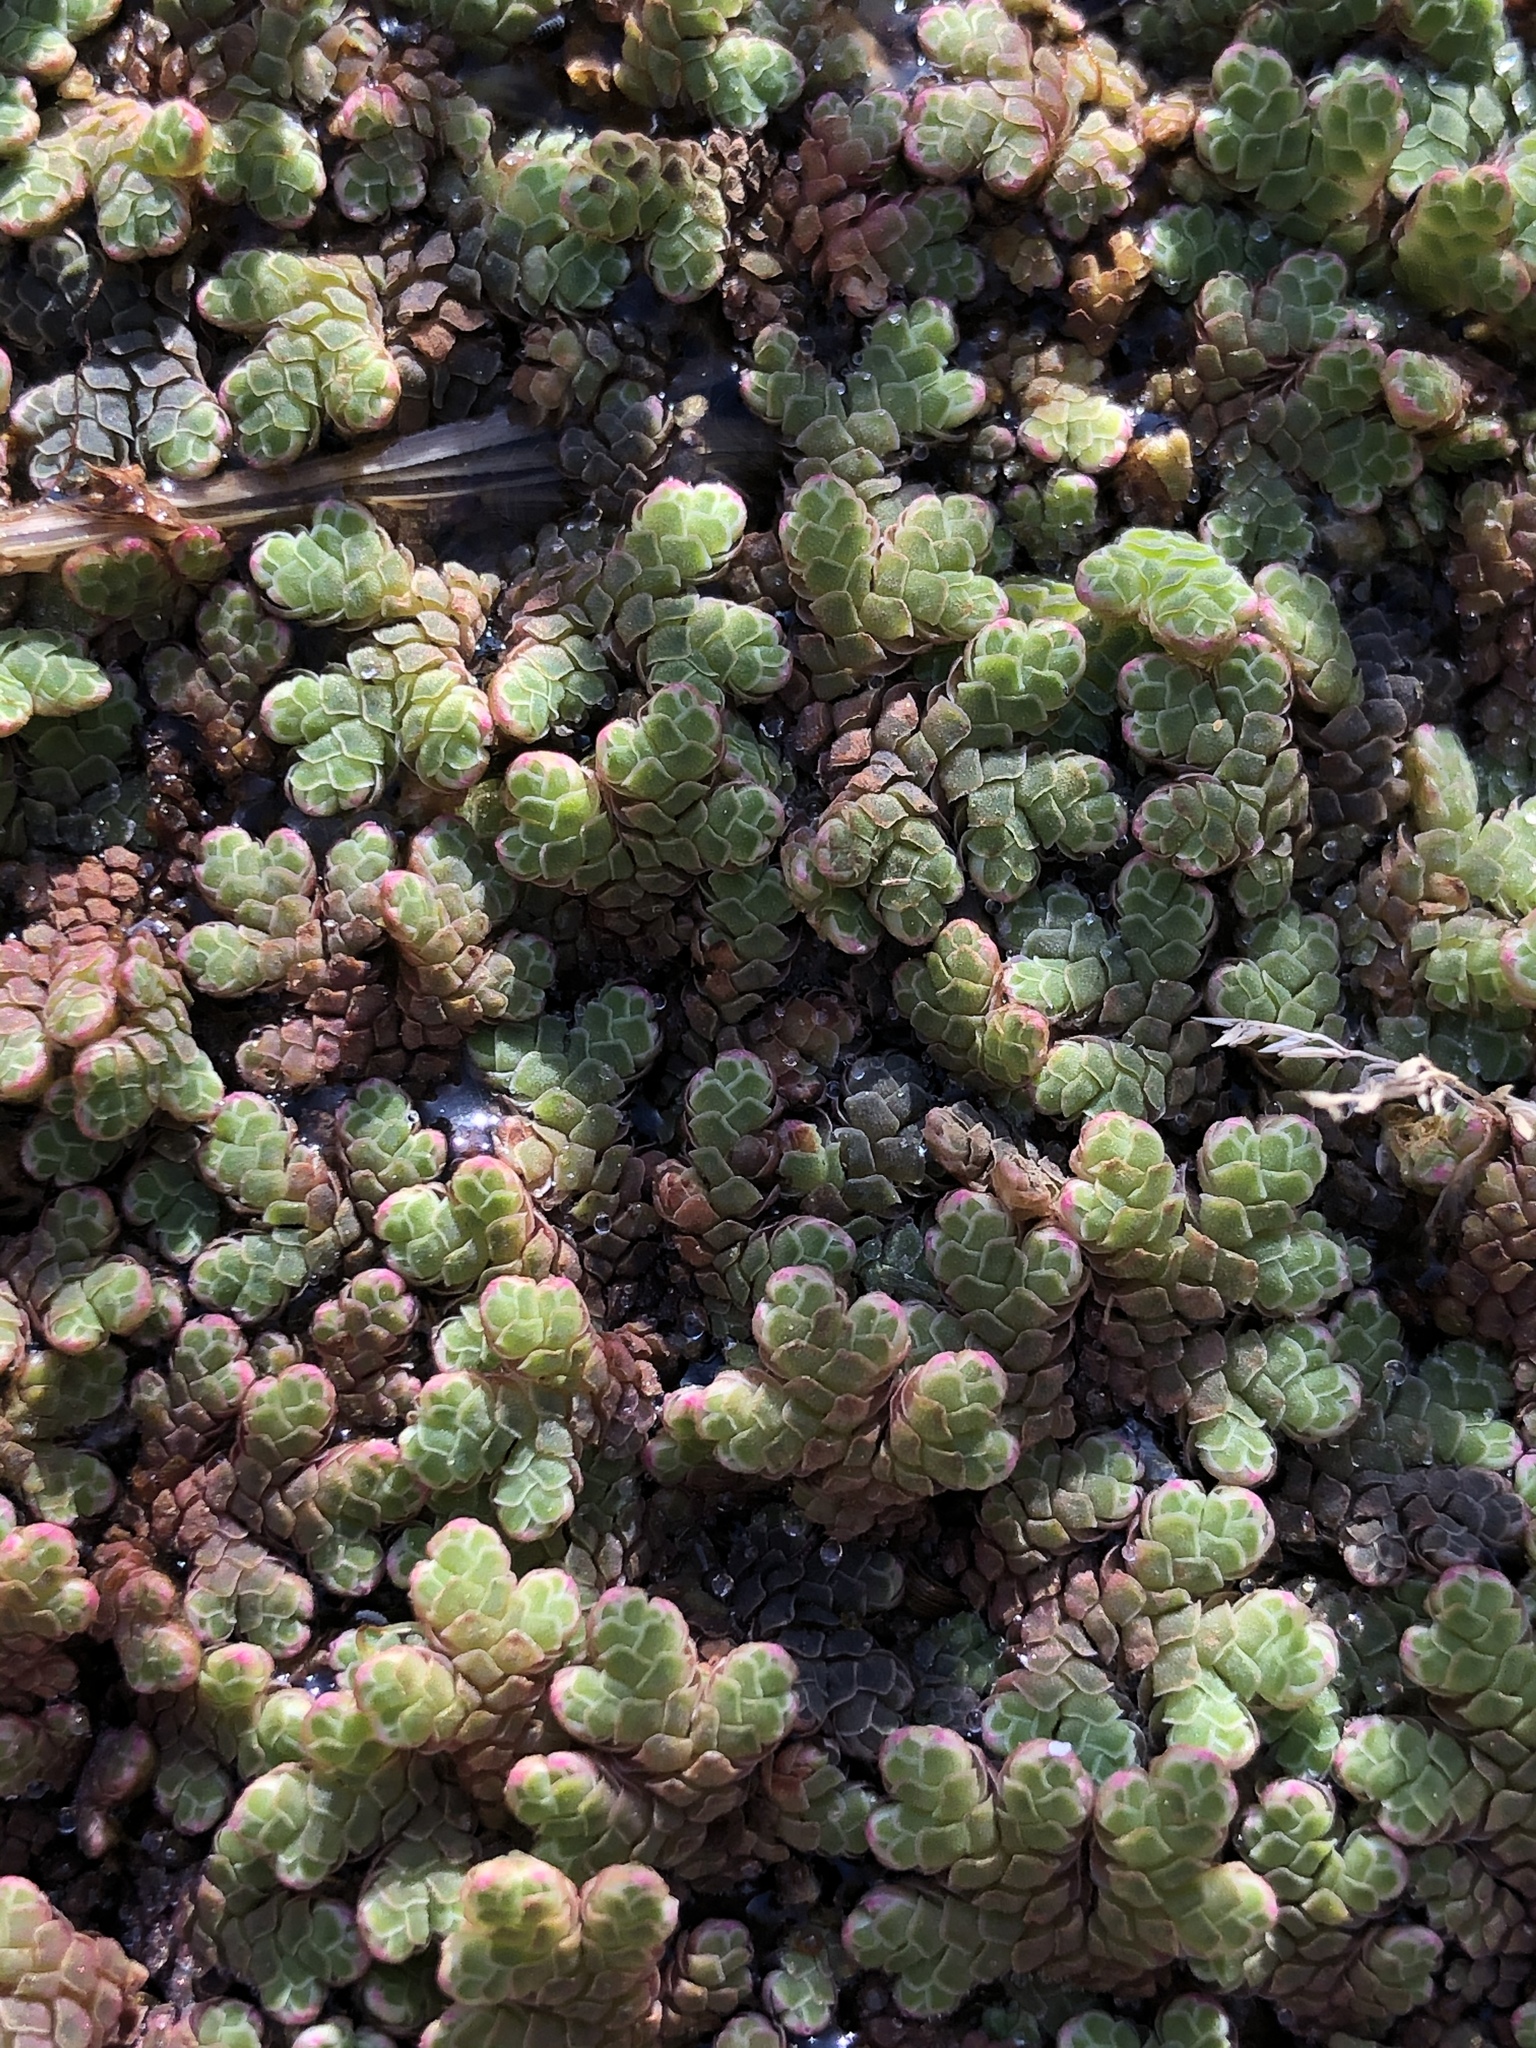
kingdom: Plantae
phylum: Tracheophyta
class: Polypodiopsida
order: Salviniales
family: Salviniaceae
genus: Azolla
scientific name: Azolla rubra
